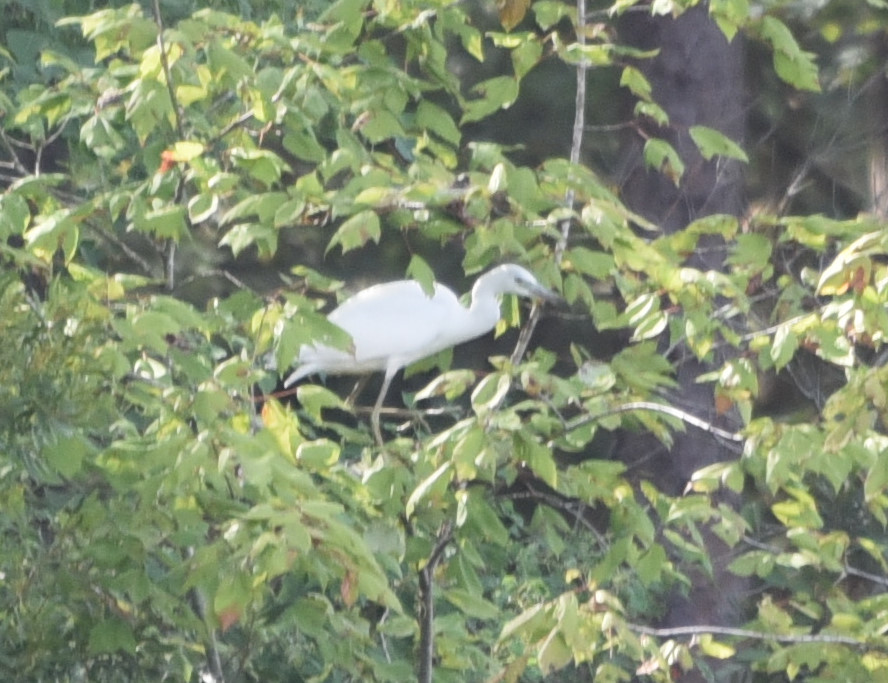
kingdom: Animalia
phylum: Chordata
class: Aves
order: Pelecaniformes
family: Ardeidae
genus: Egretta
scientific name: Egretta caerulea
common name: Little blue heron
